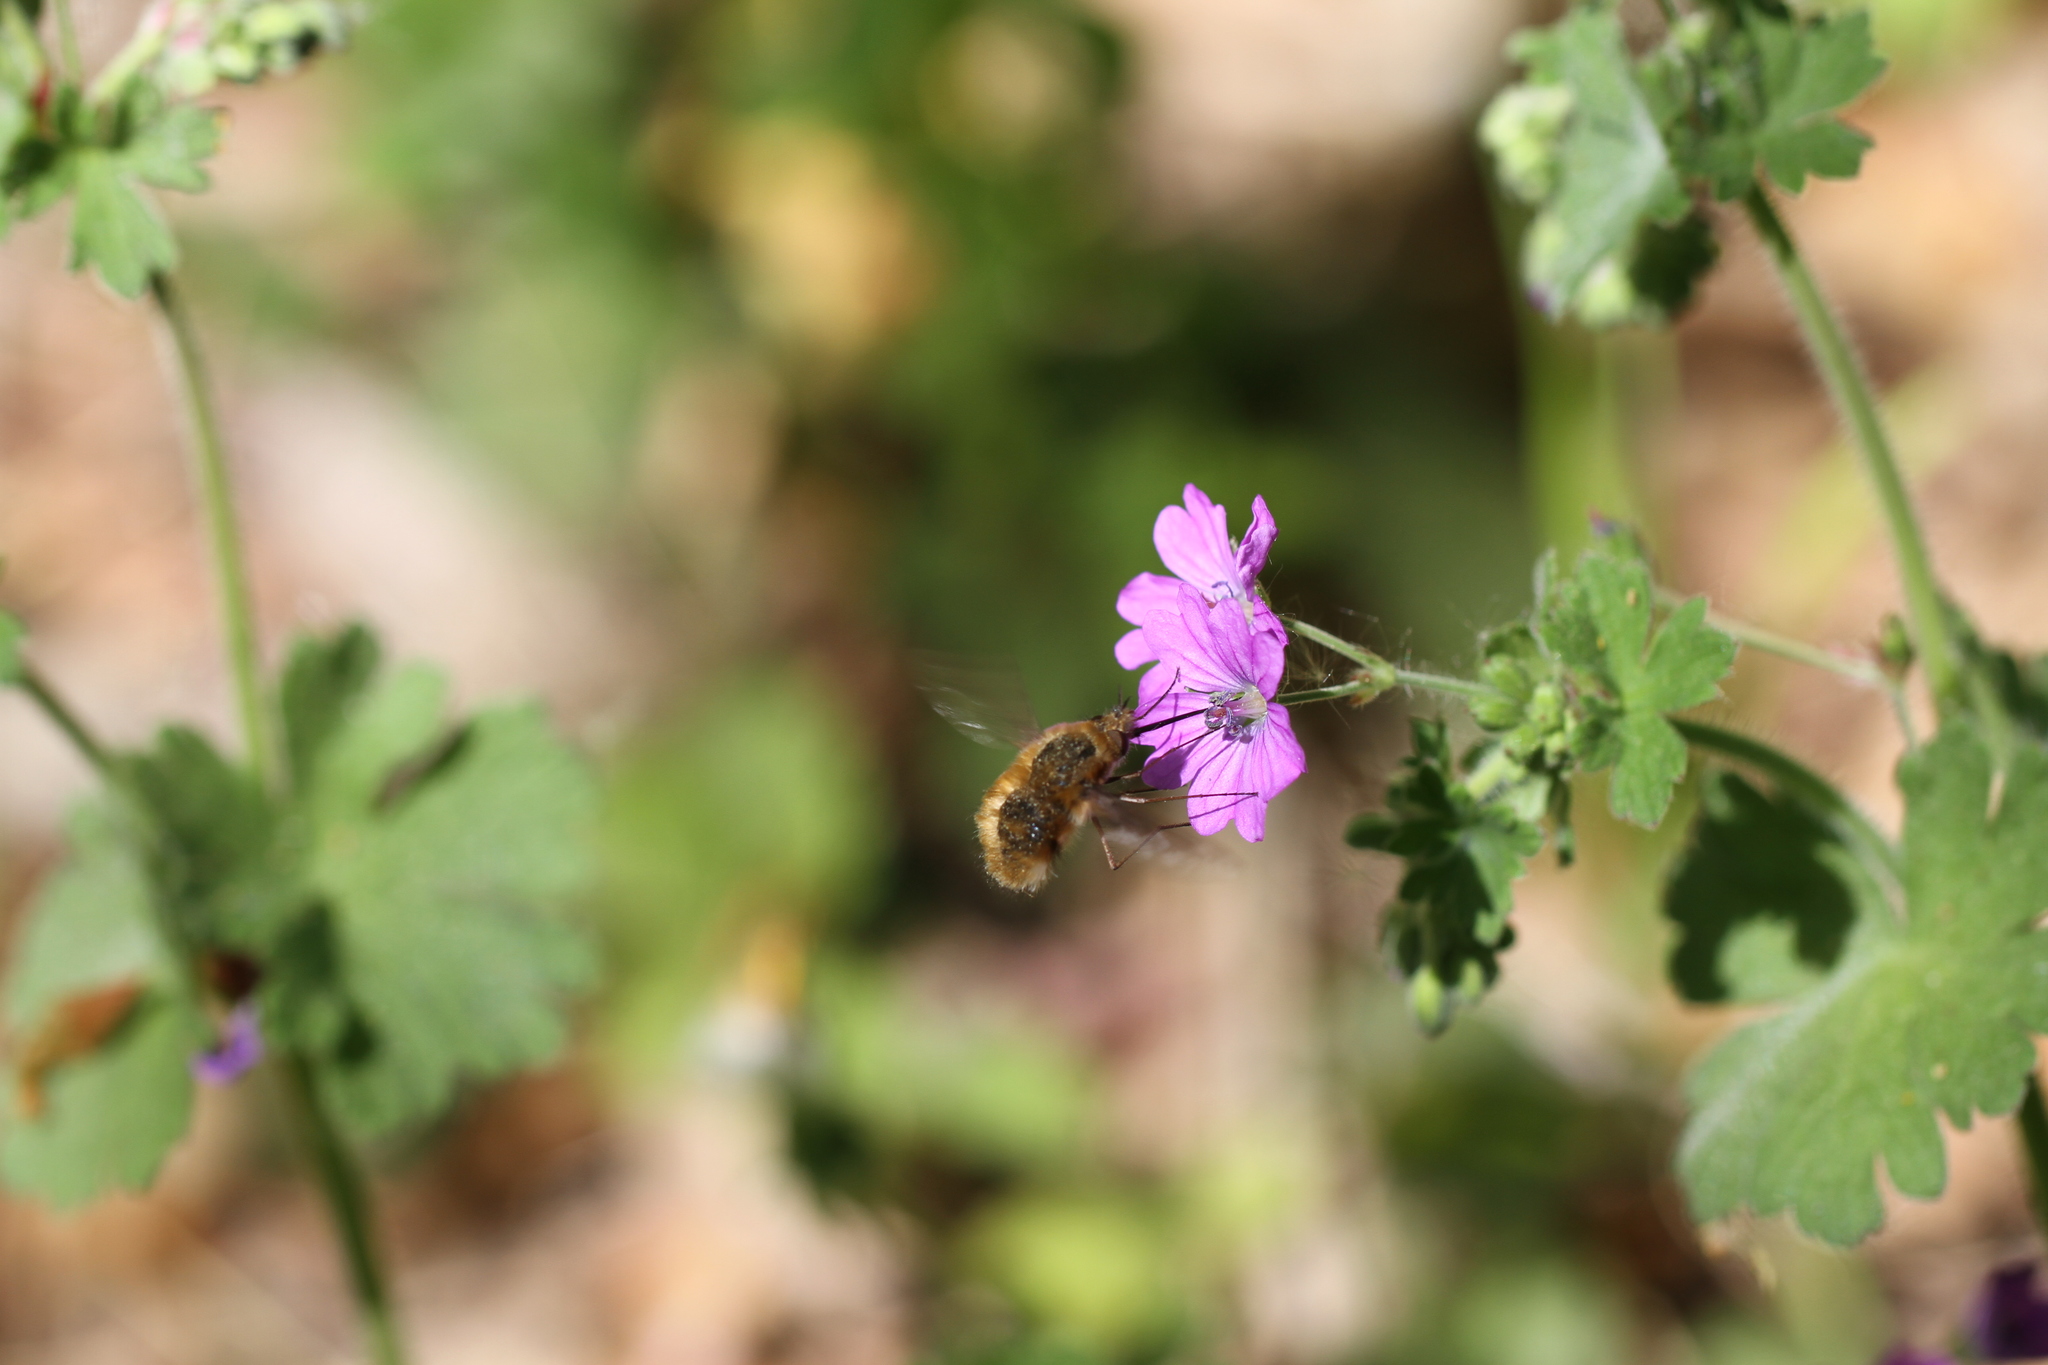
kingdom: Animalia
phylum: Arthropoda
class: Insecta
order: Diptera
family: Bombyliidae
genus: Bombylius
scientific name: Bombylius major
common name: Bee fly
